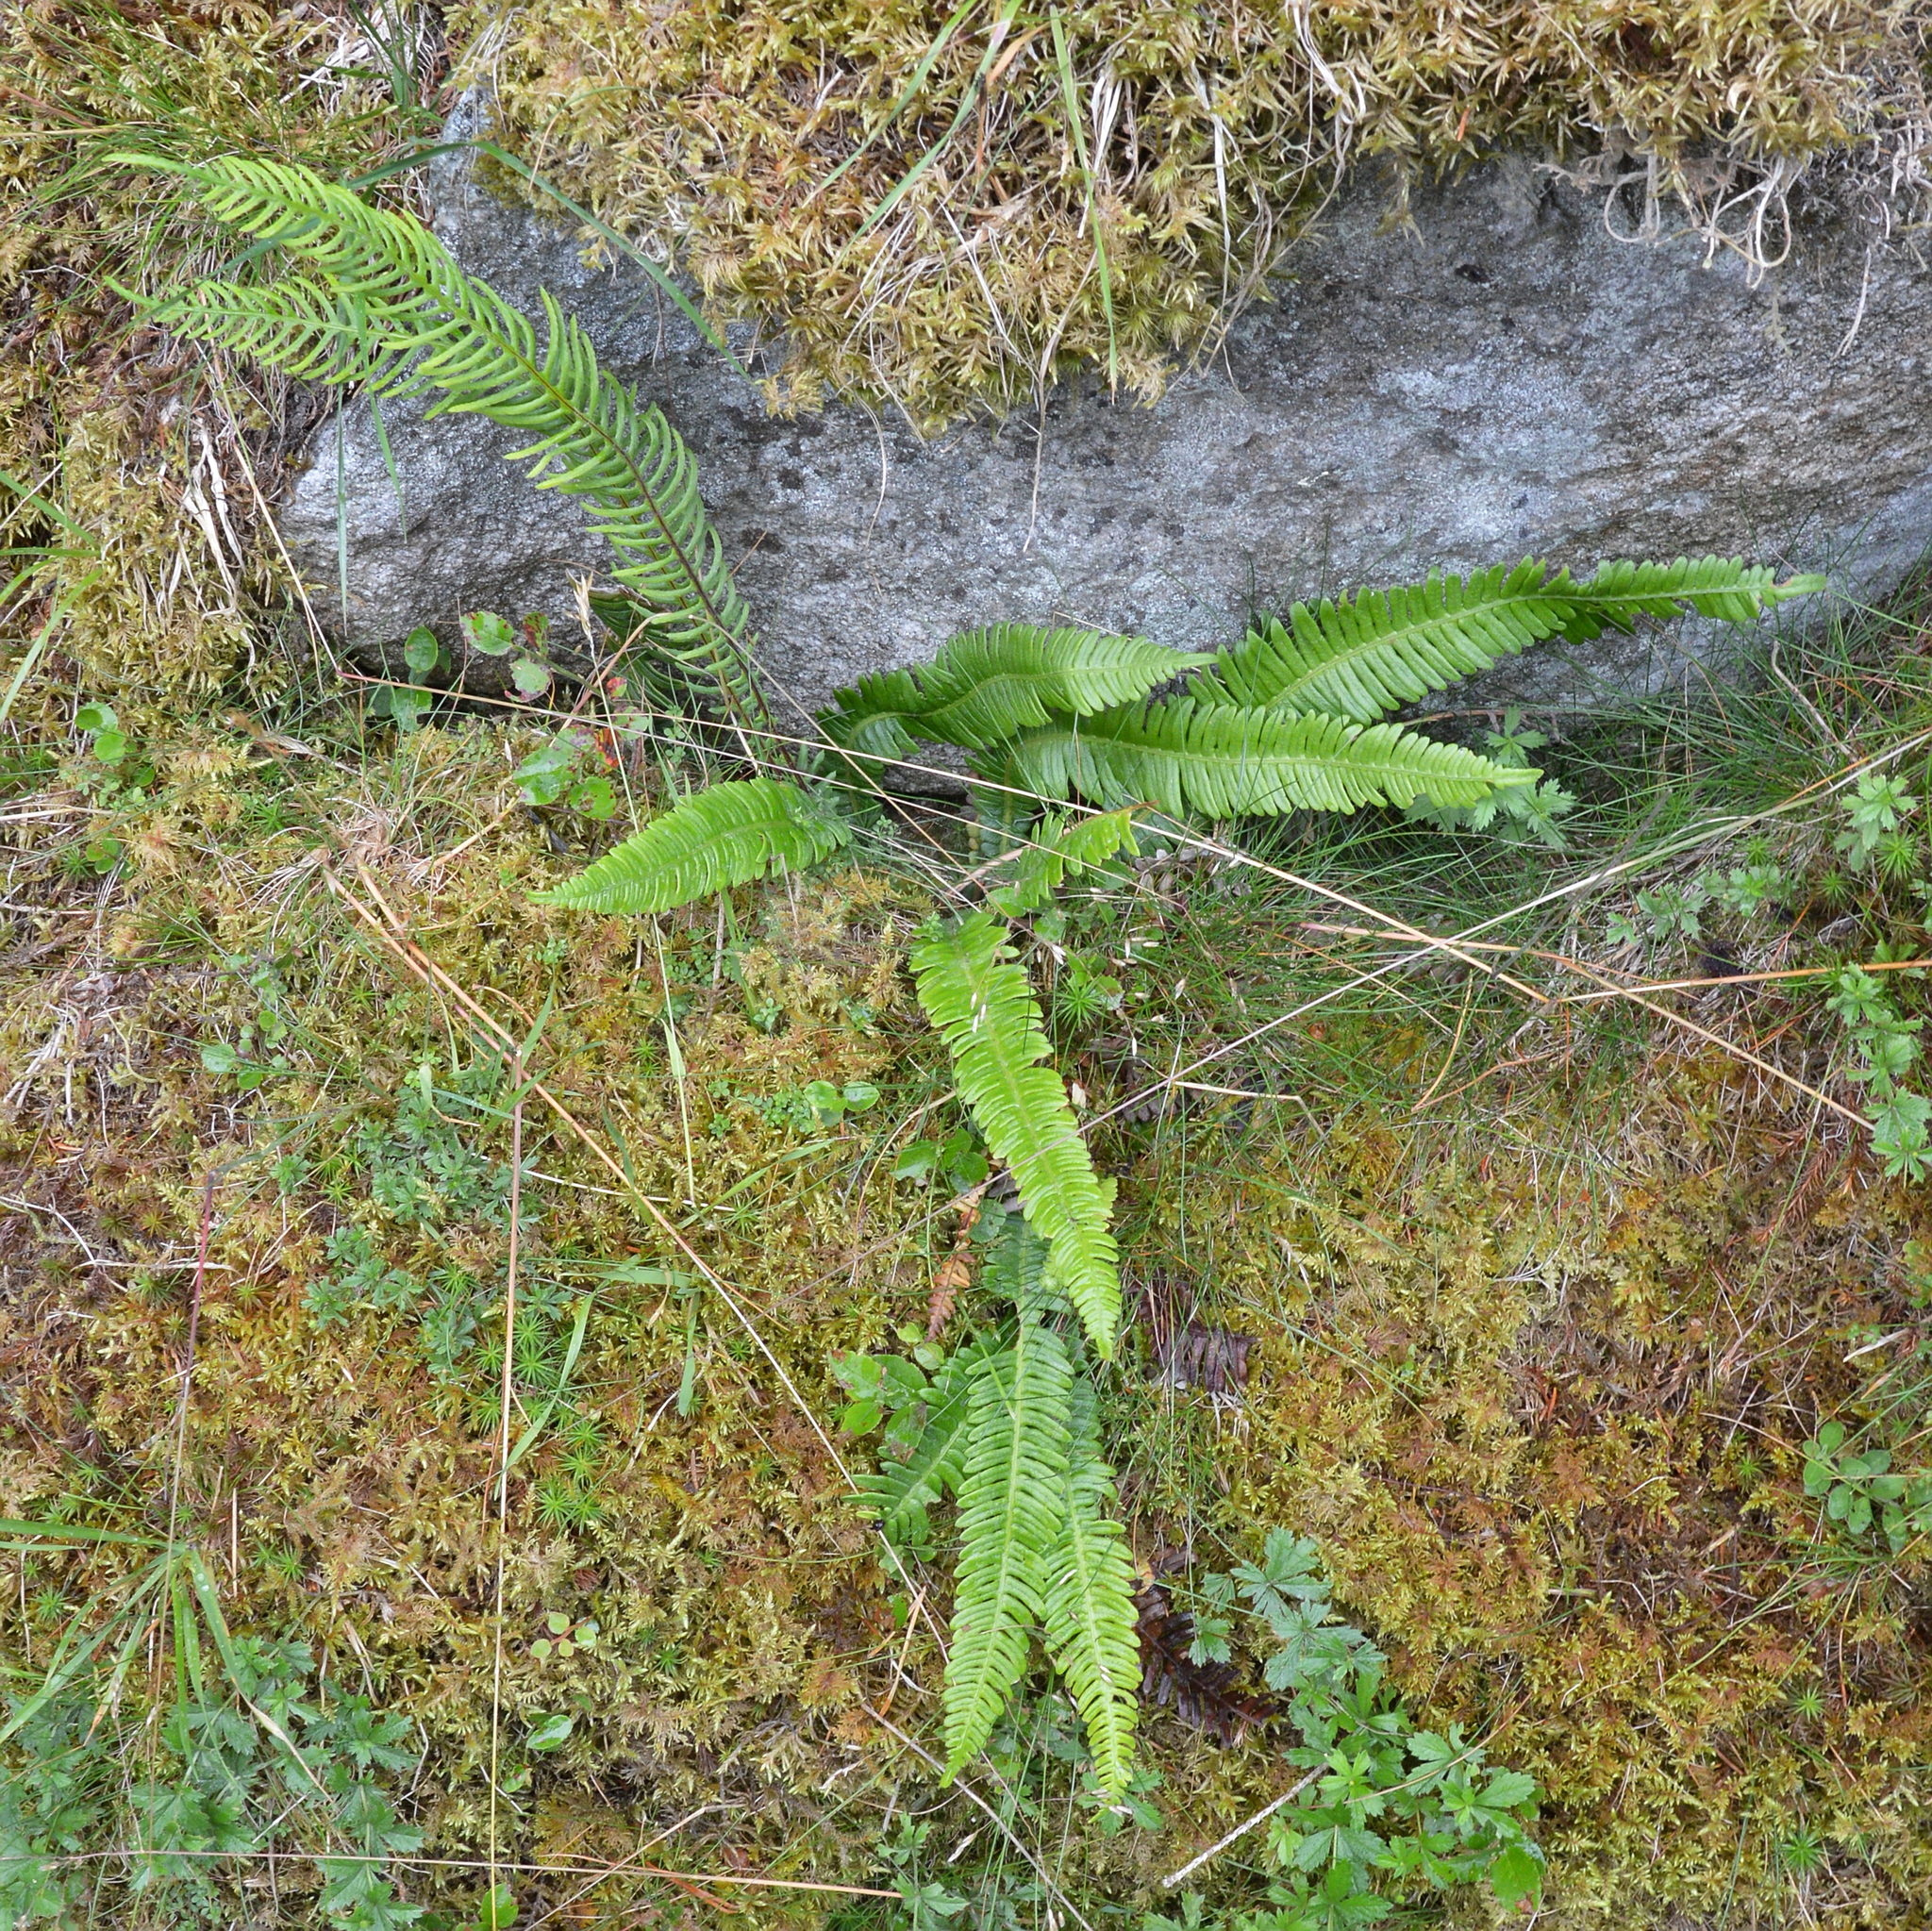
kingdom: Plantae
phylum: Tracheophyta
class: Polypodiopsida
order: Polypodiales
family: Blechnaceae
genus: Struthiopteris
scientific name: Struthiopteris spicant
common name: Deer fern
